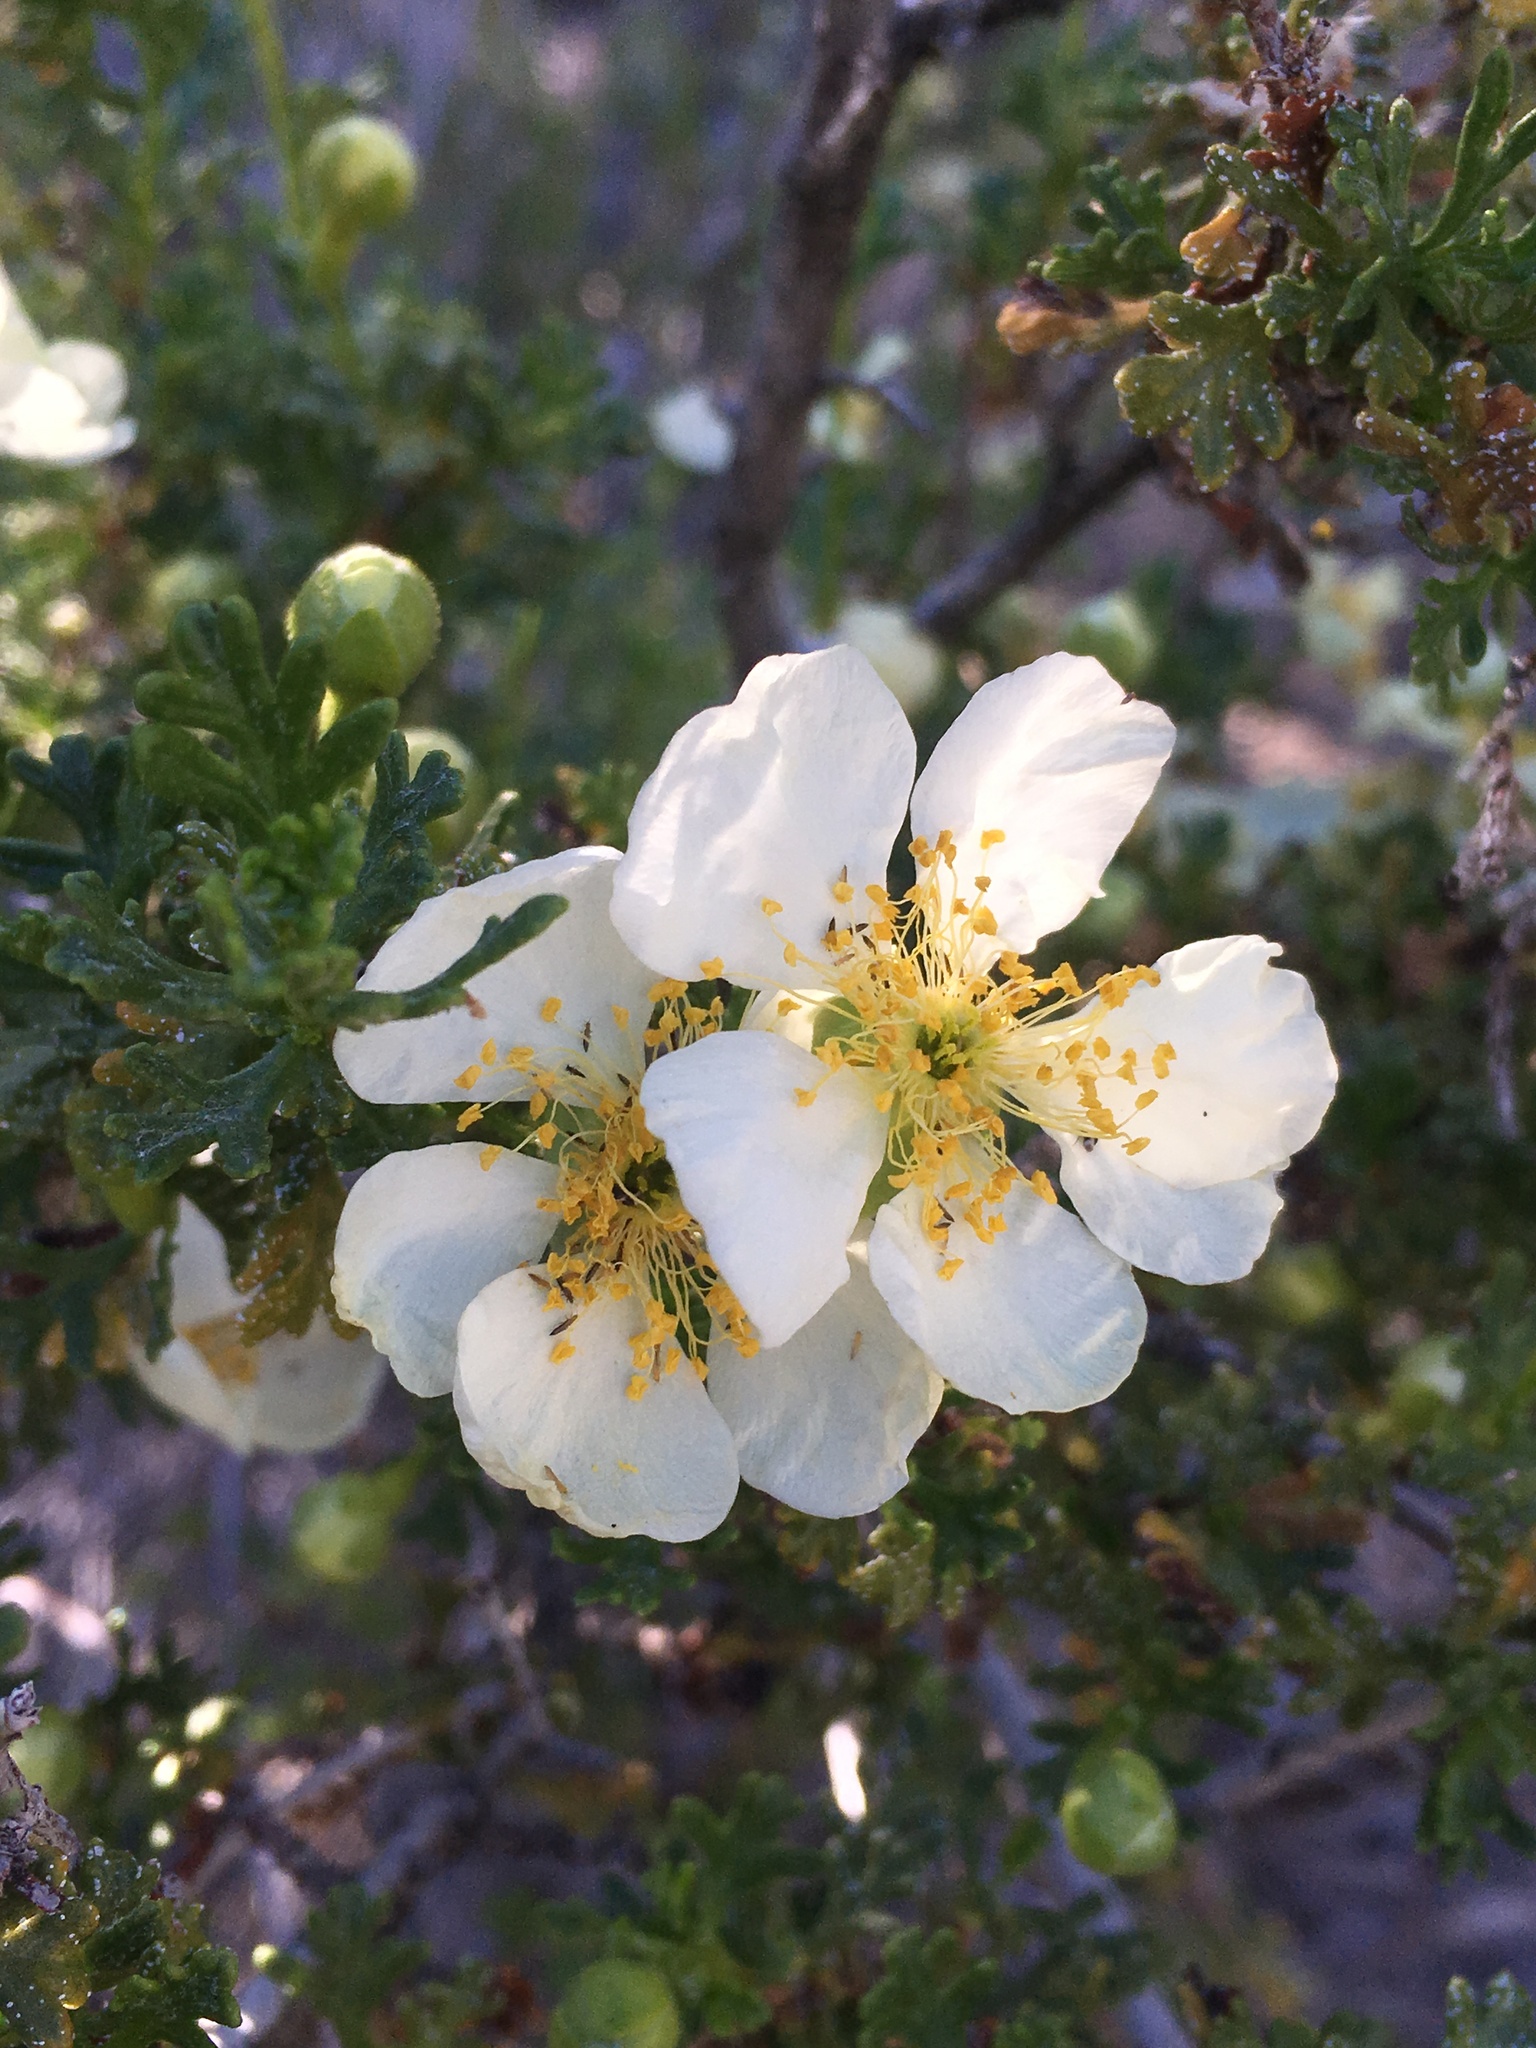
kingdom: Plantae
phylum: Tracheophyta
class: Magnoliopsida
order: Rosales
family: Rosaceae
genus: Purshia
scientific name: Purshia stansburiana
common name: Stansbury's cliffrose
